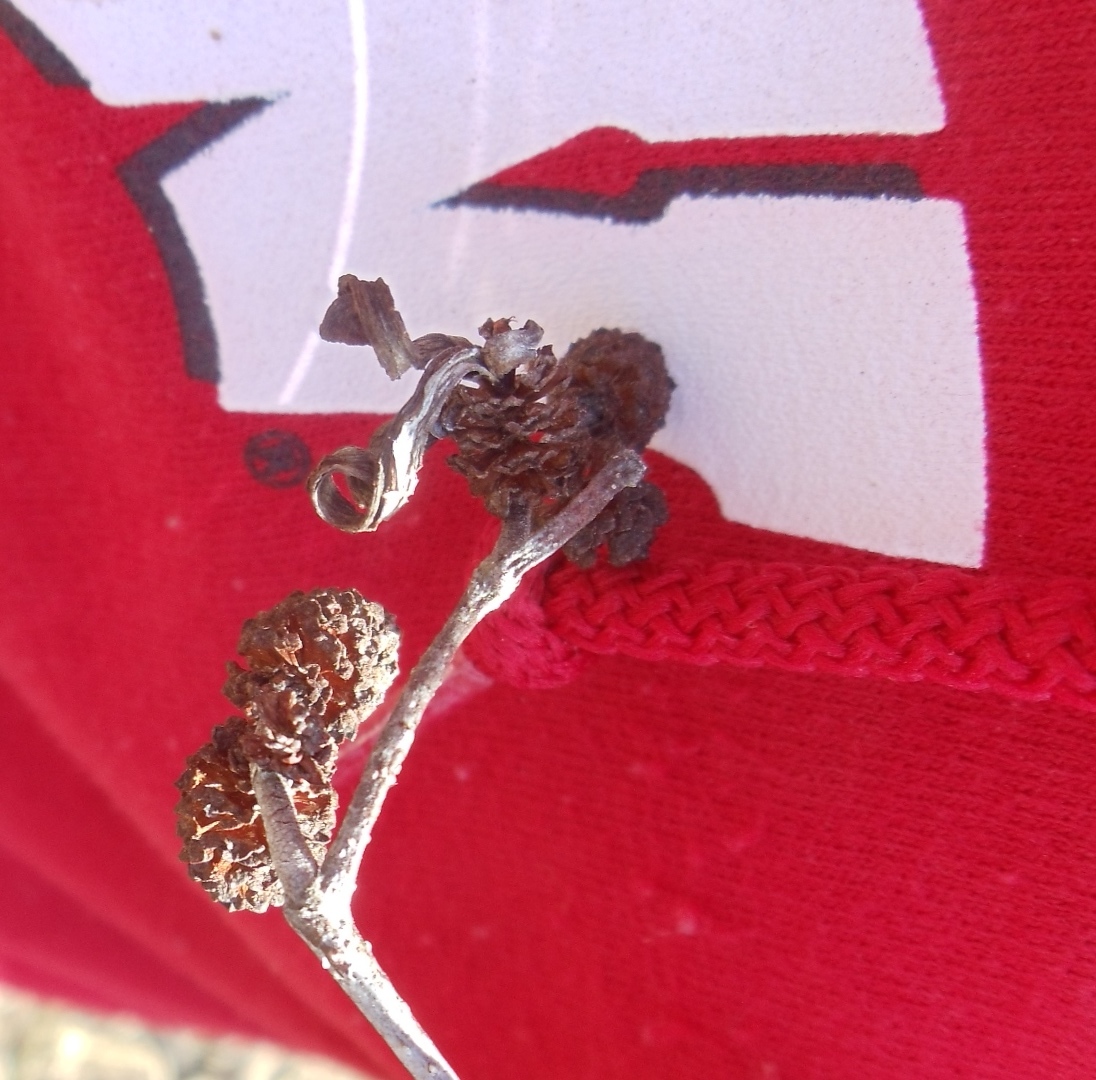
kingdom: Fungi
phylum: Ascomycota
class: Taphrinomycetes
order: Taphrinales
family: Taphrinaceae
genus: Taphrina
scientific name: Taphrina robinsoniana
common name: Eastern american alder tongue gall fungus
